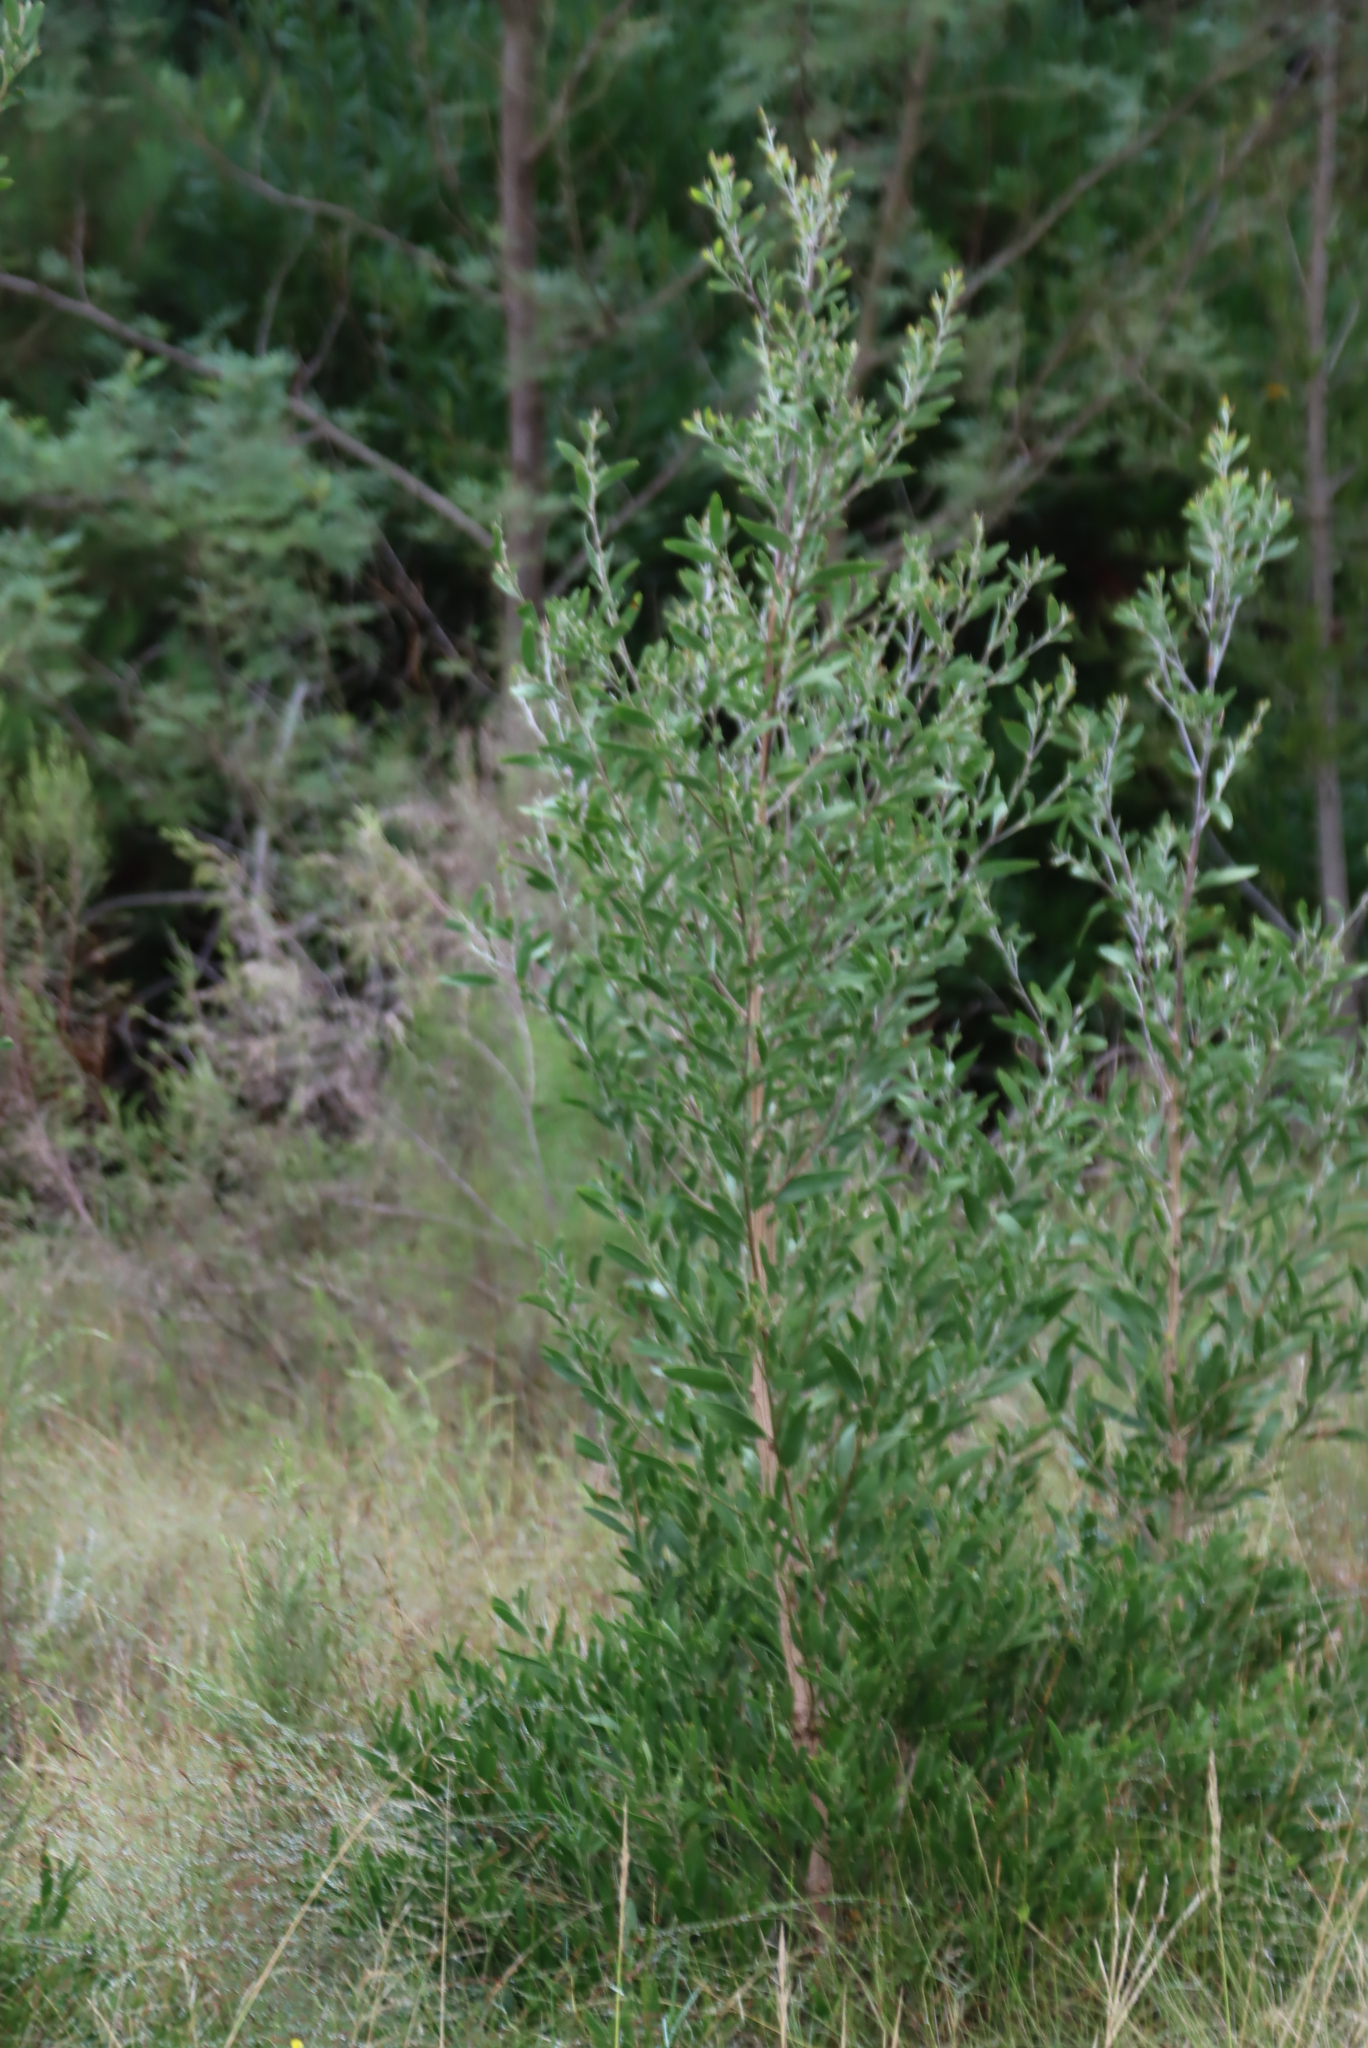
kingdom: Plantae
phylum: Tracheophyta
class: Magnoliopsida
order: Fabales
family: Fabaceae
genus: Acacia
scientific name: Acacia melanoxylon
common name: Blackwood
